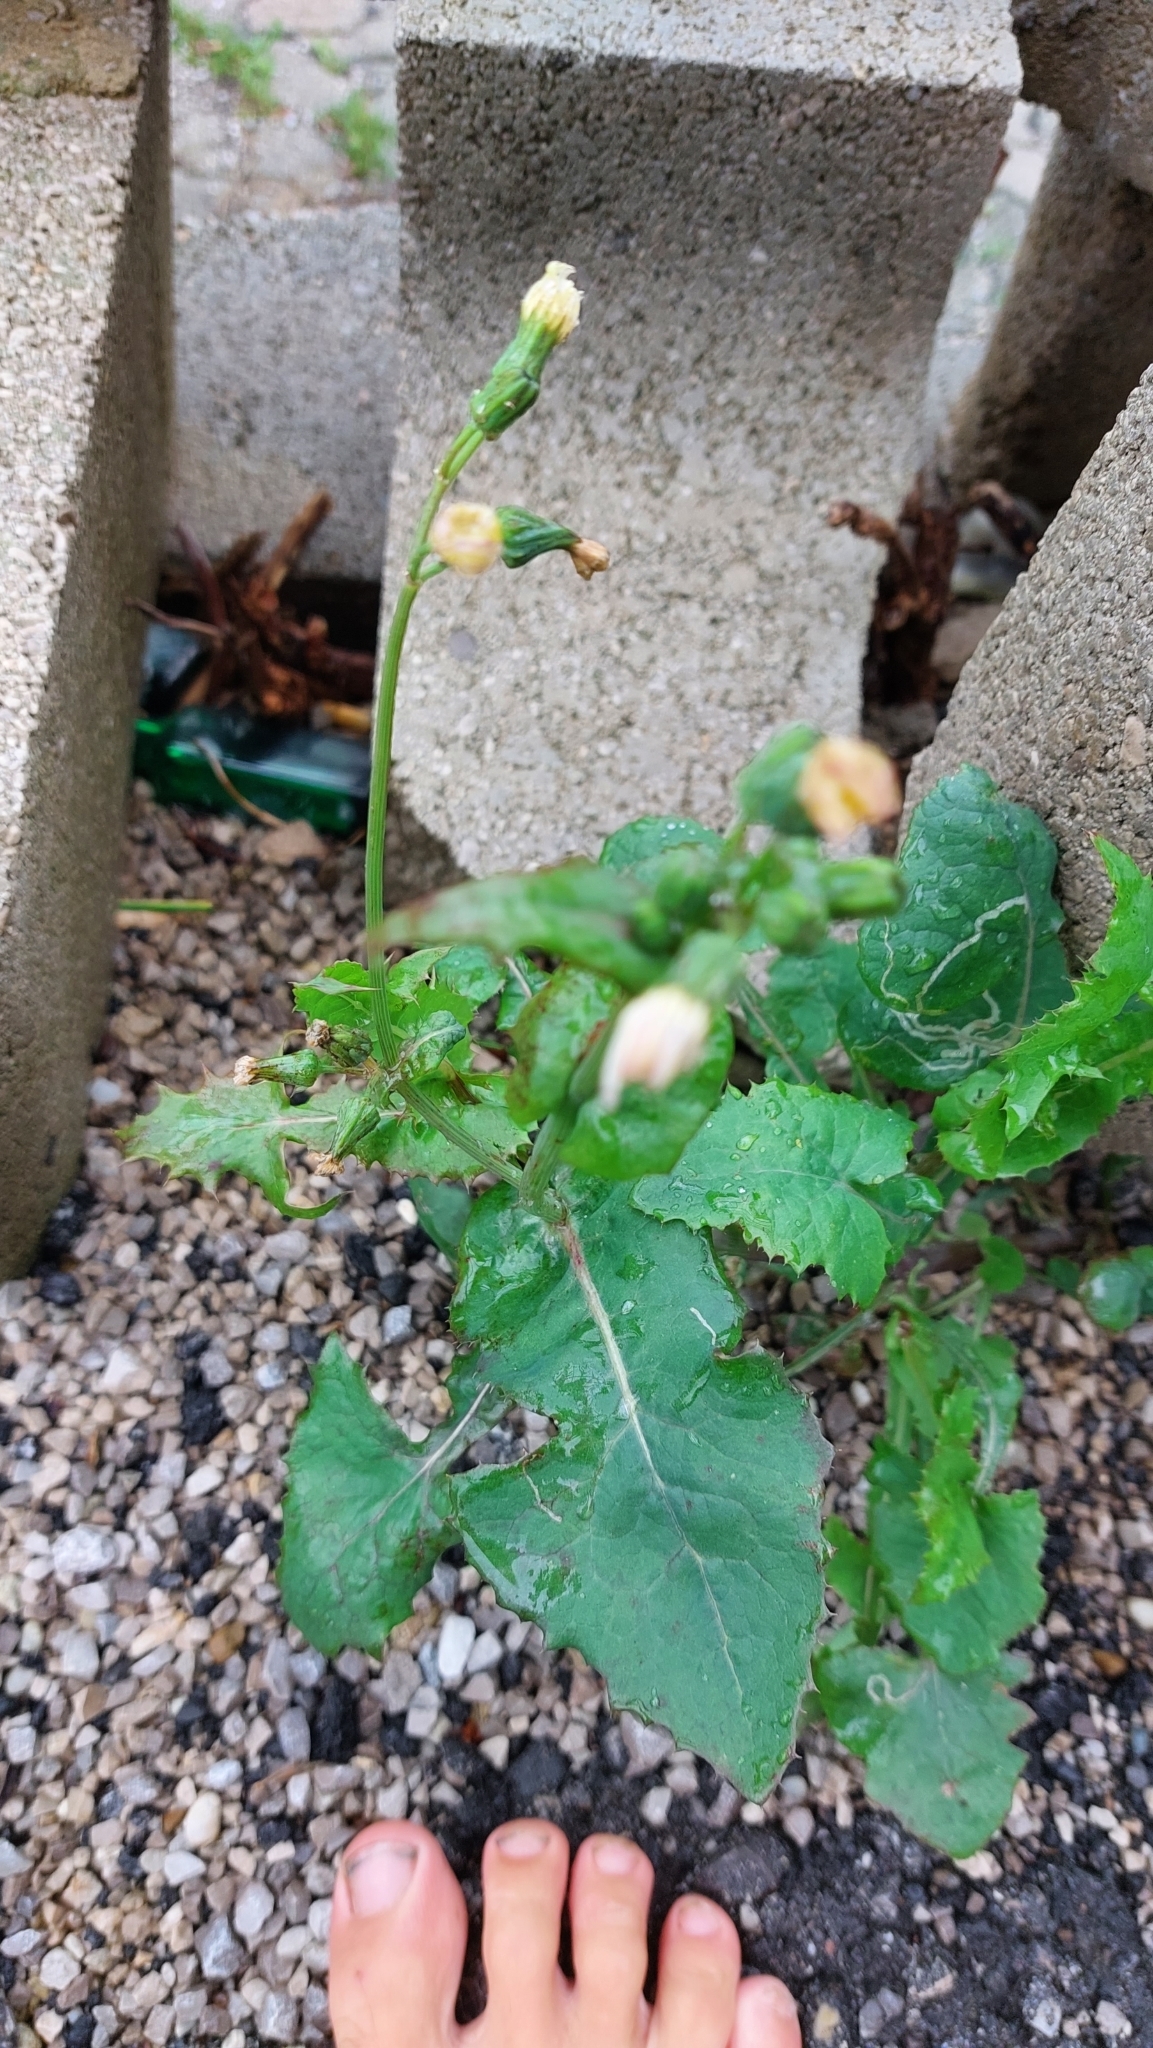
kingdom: Plantae
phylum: Tracheophyta
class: Magnoliopsida
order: Asterales
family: Asteraceae
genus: Sonchus
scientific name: Sonchus oleraceus
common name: Common sowthistle
